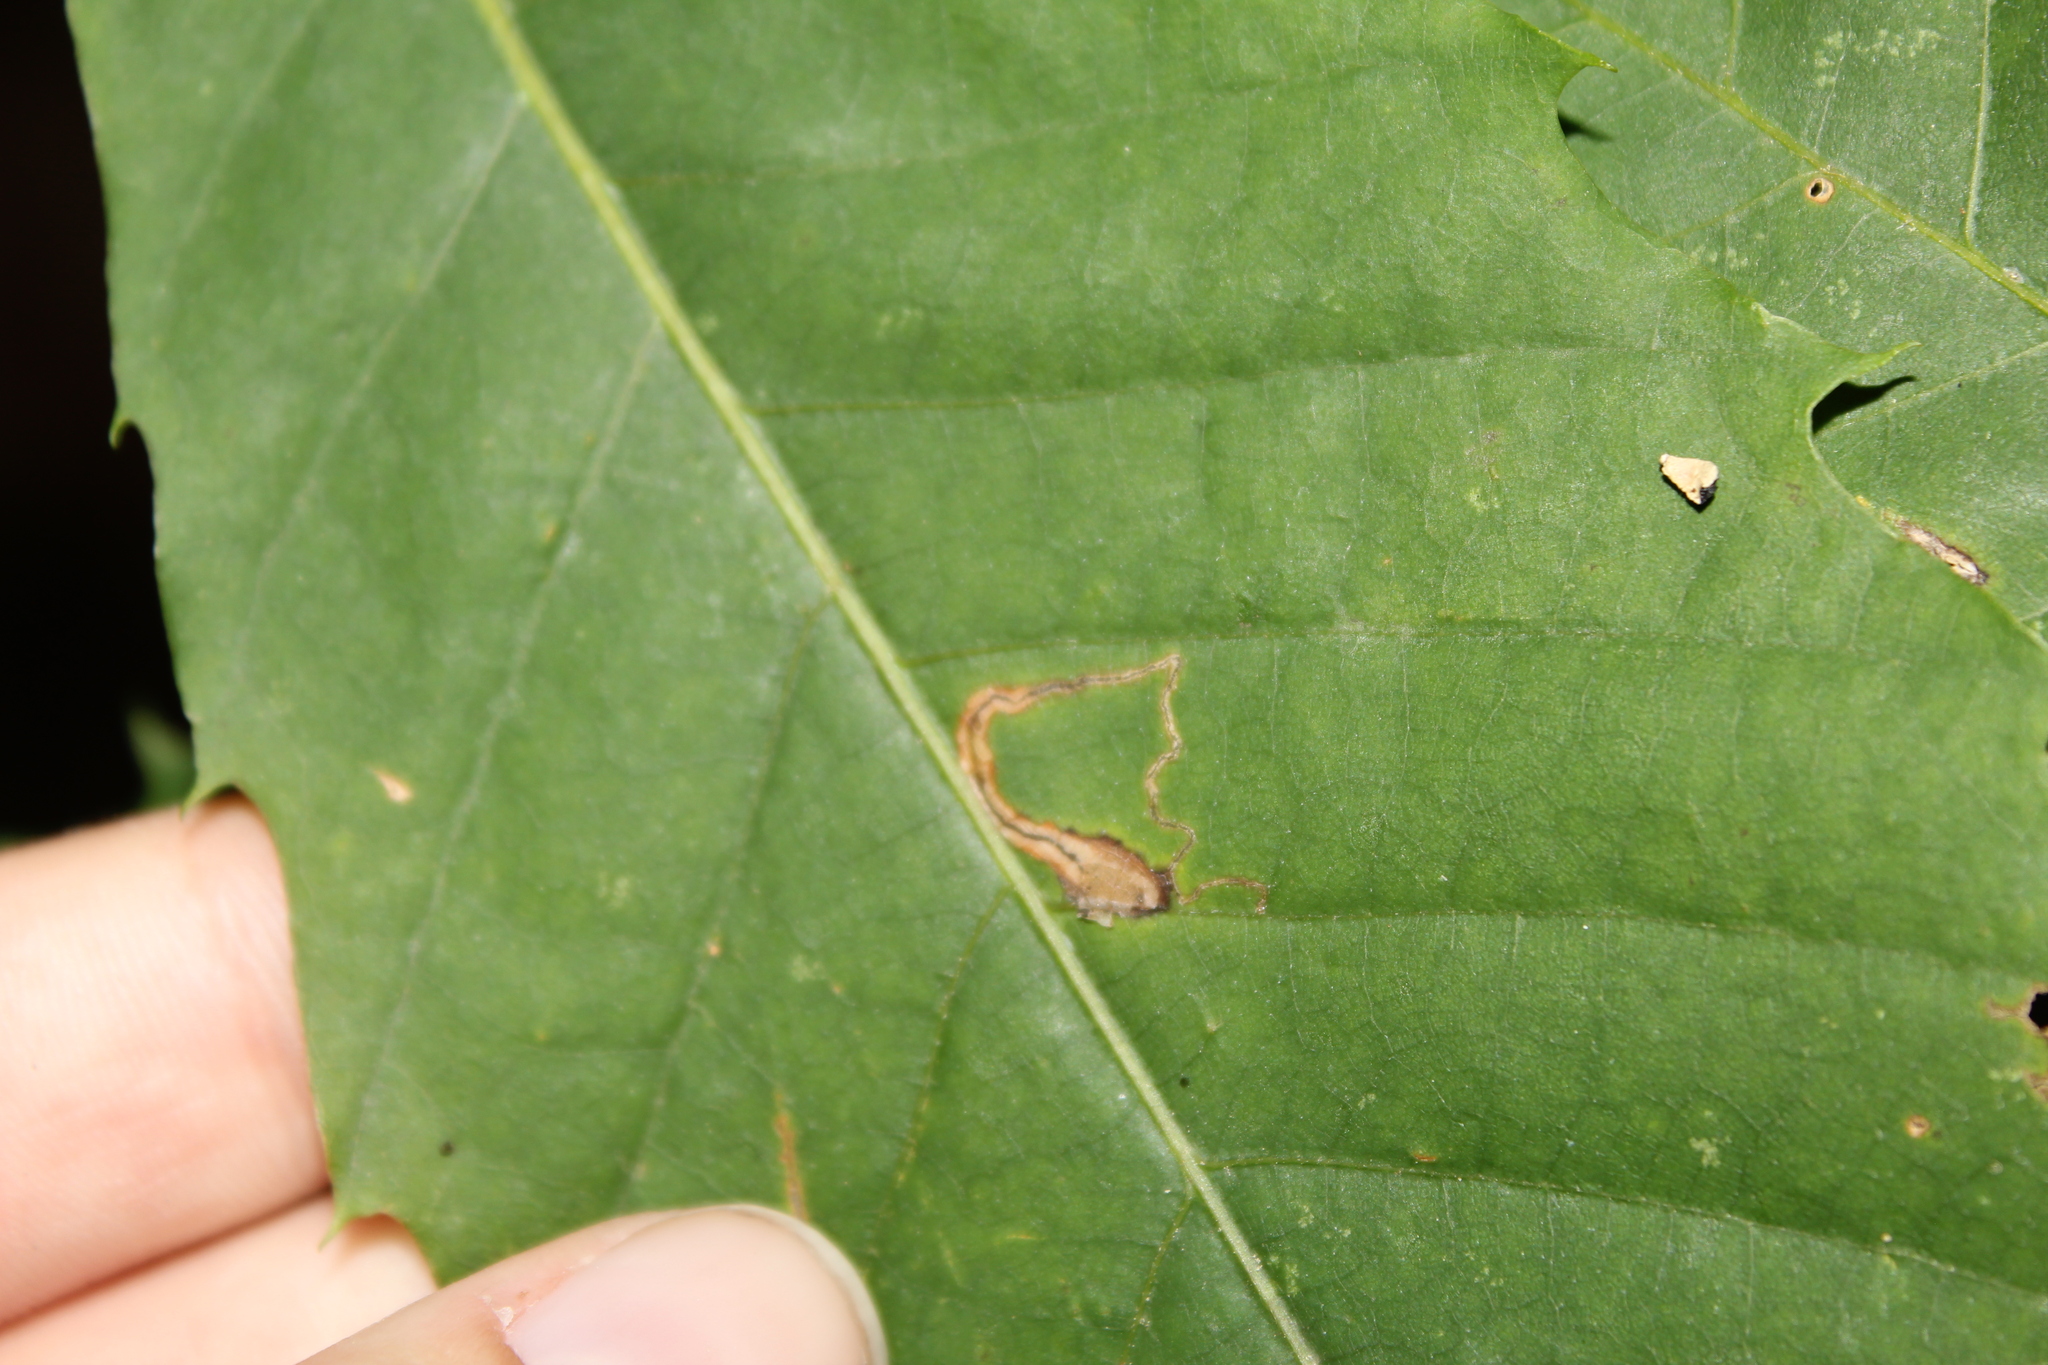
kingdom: Animalia
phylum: Arthropoda
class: Insecta
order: Lepidoptera
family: Nepticulidae
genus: Stigmella
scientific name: Stigmella
